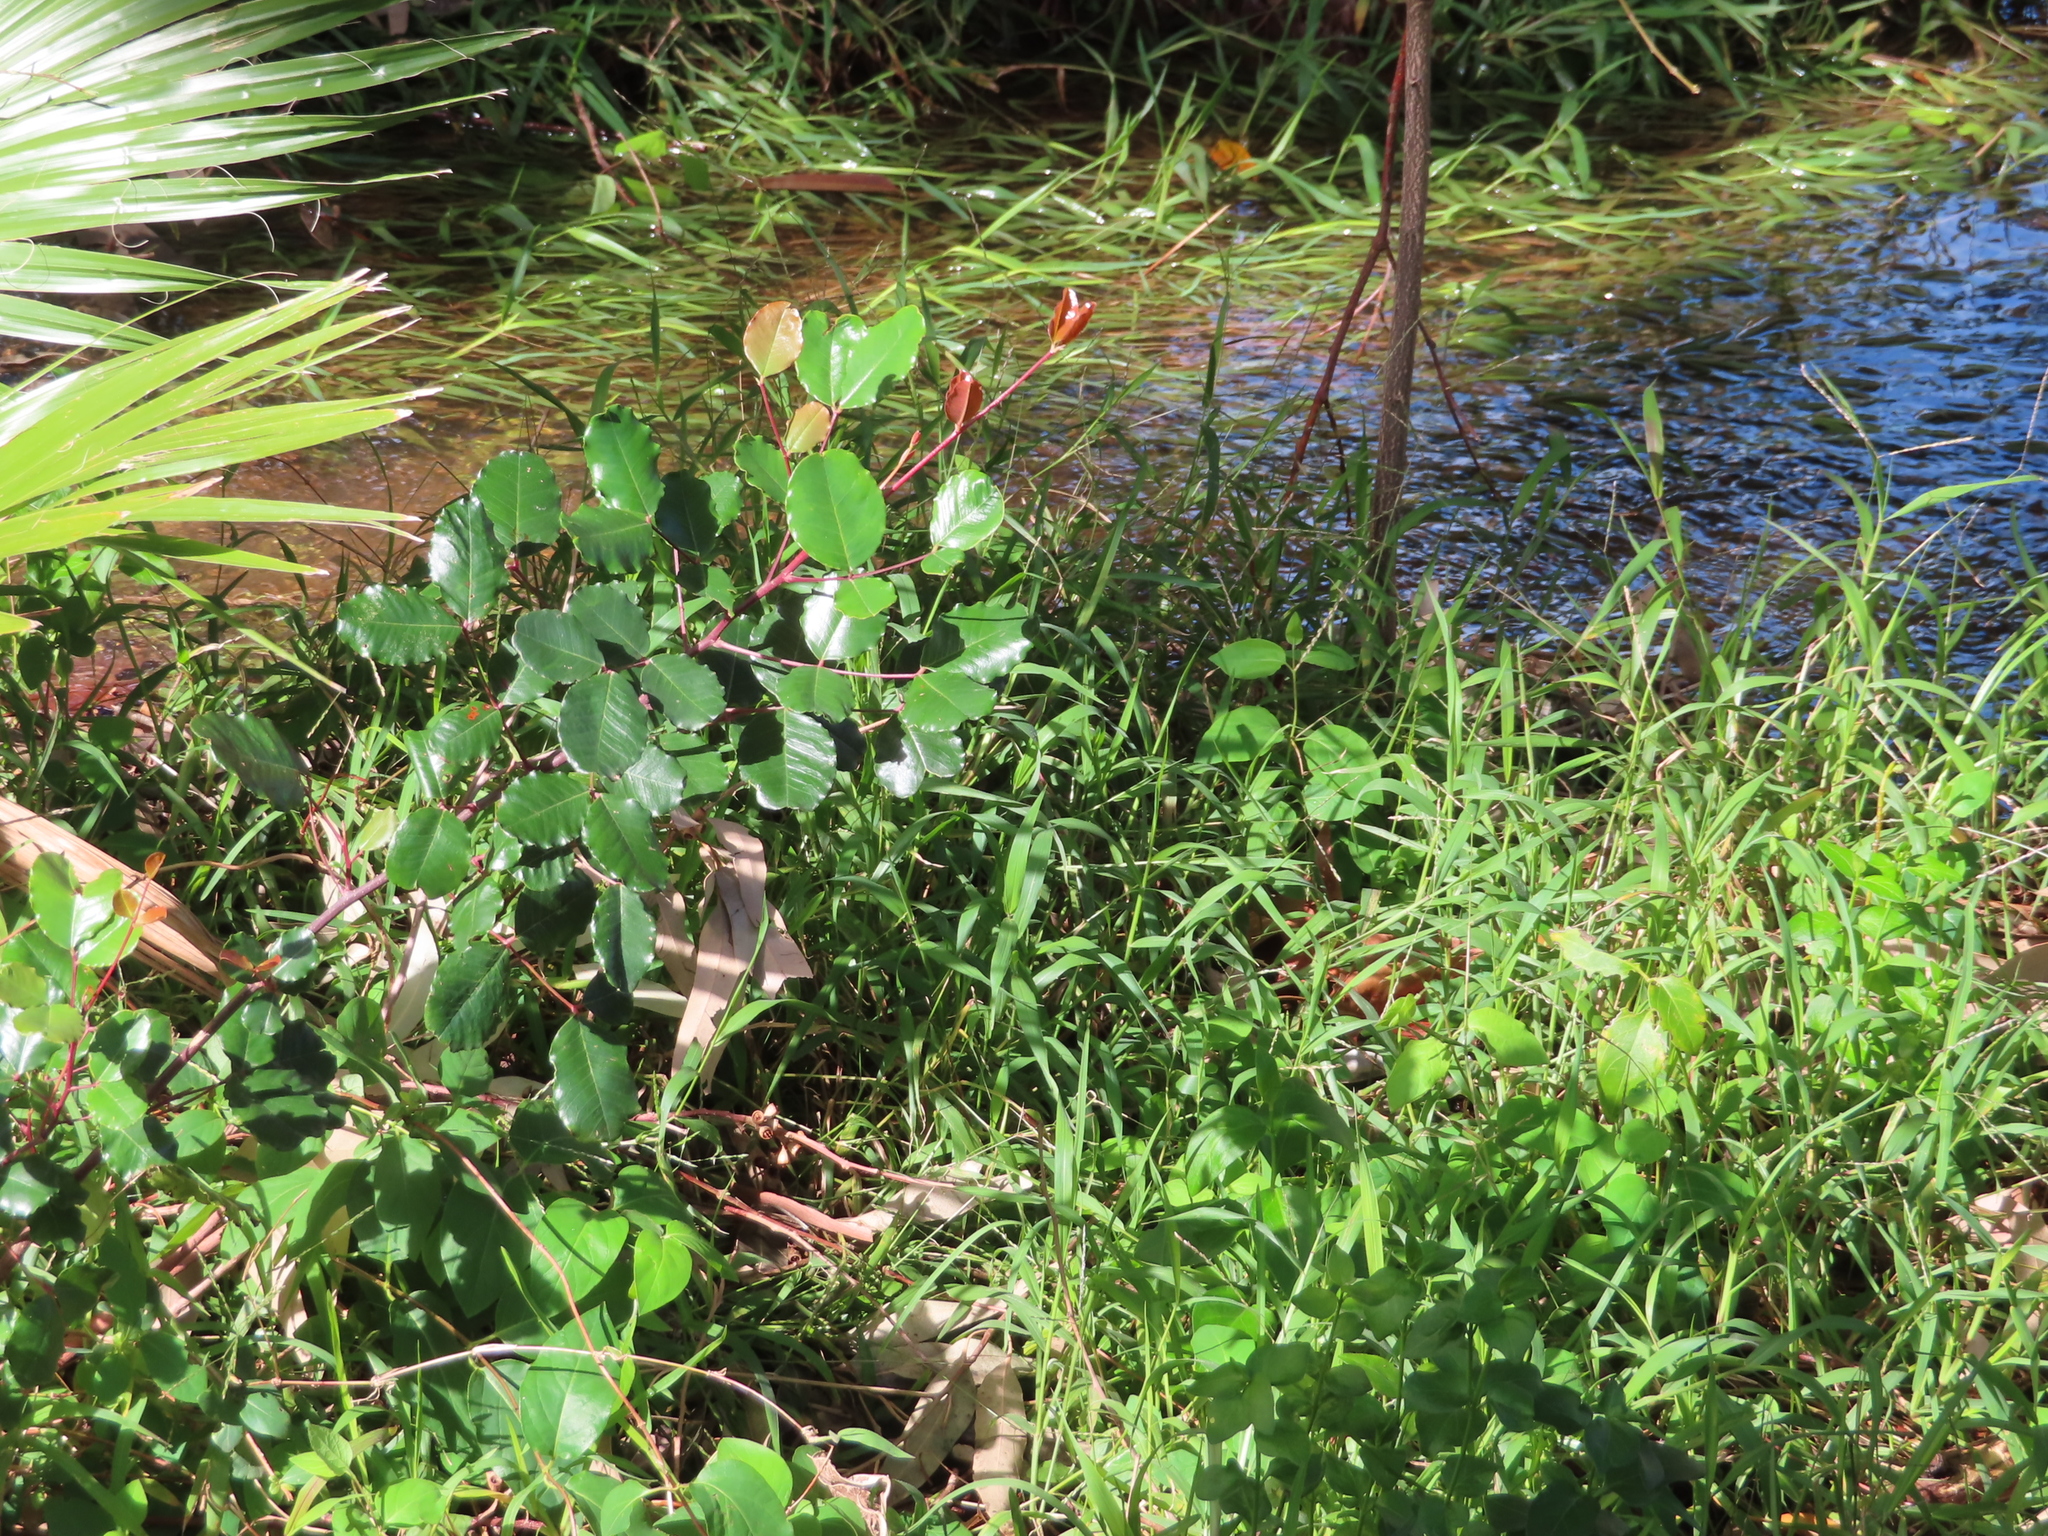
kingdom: Plantae
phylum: Tracheophyta
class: Magnoliopsida
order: Fabales
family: Fabaceae
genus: Ceratonia
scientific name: Ceratonia siliqua
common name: Carob
